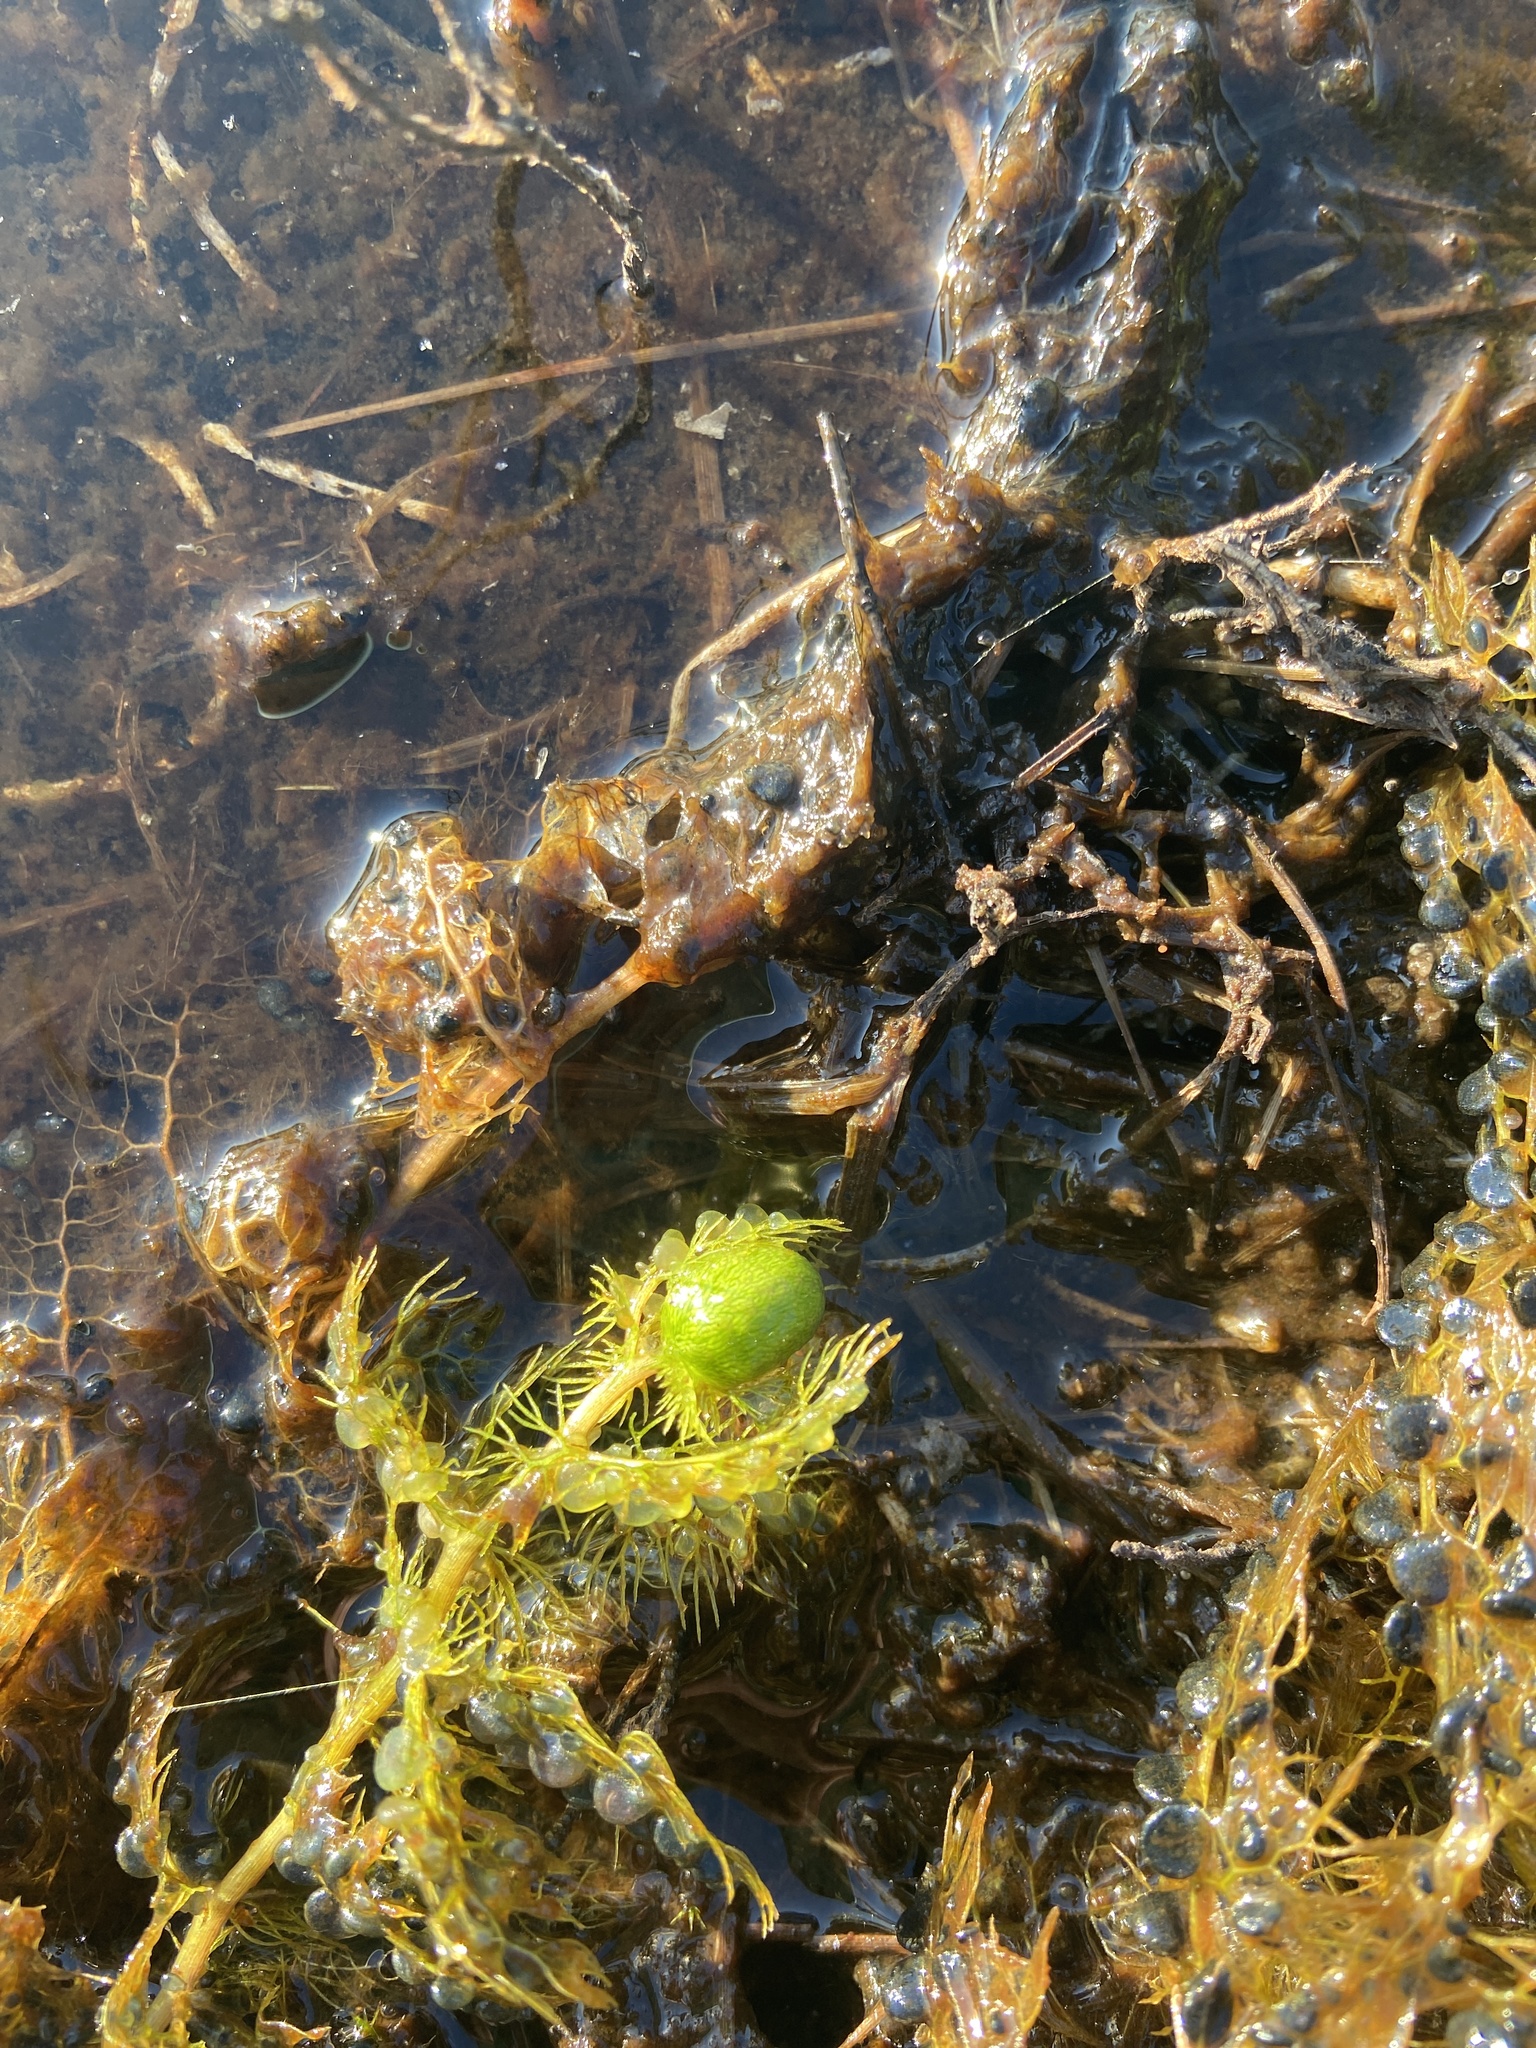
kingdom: Plantae
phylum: Tracheophyta
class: Magnoliopsida
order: Lamiales
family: Lentibulariaceae
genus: Utricularia
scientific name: Utricularia macrorhiza
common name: Common bladderwort
